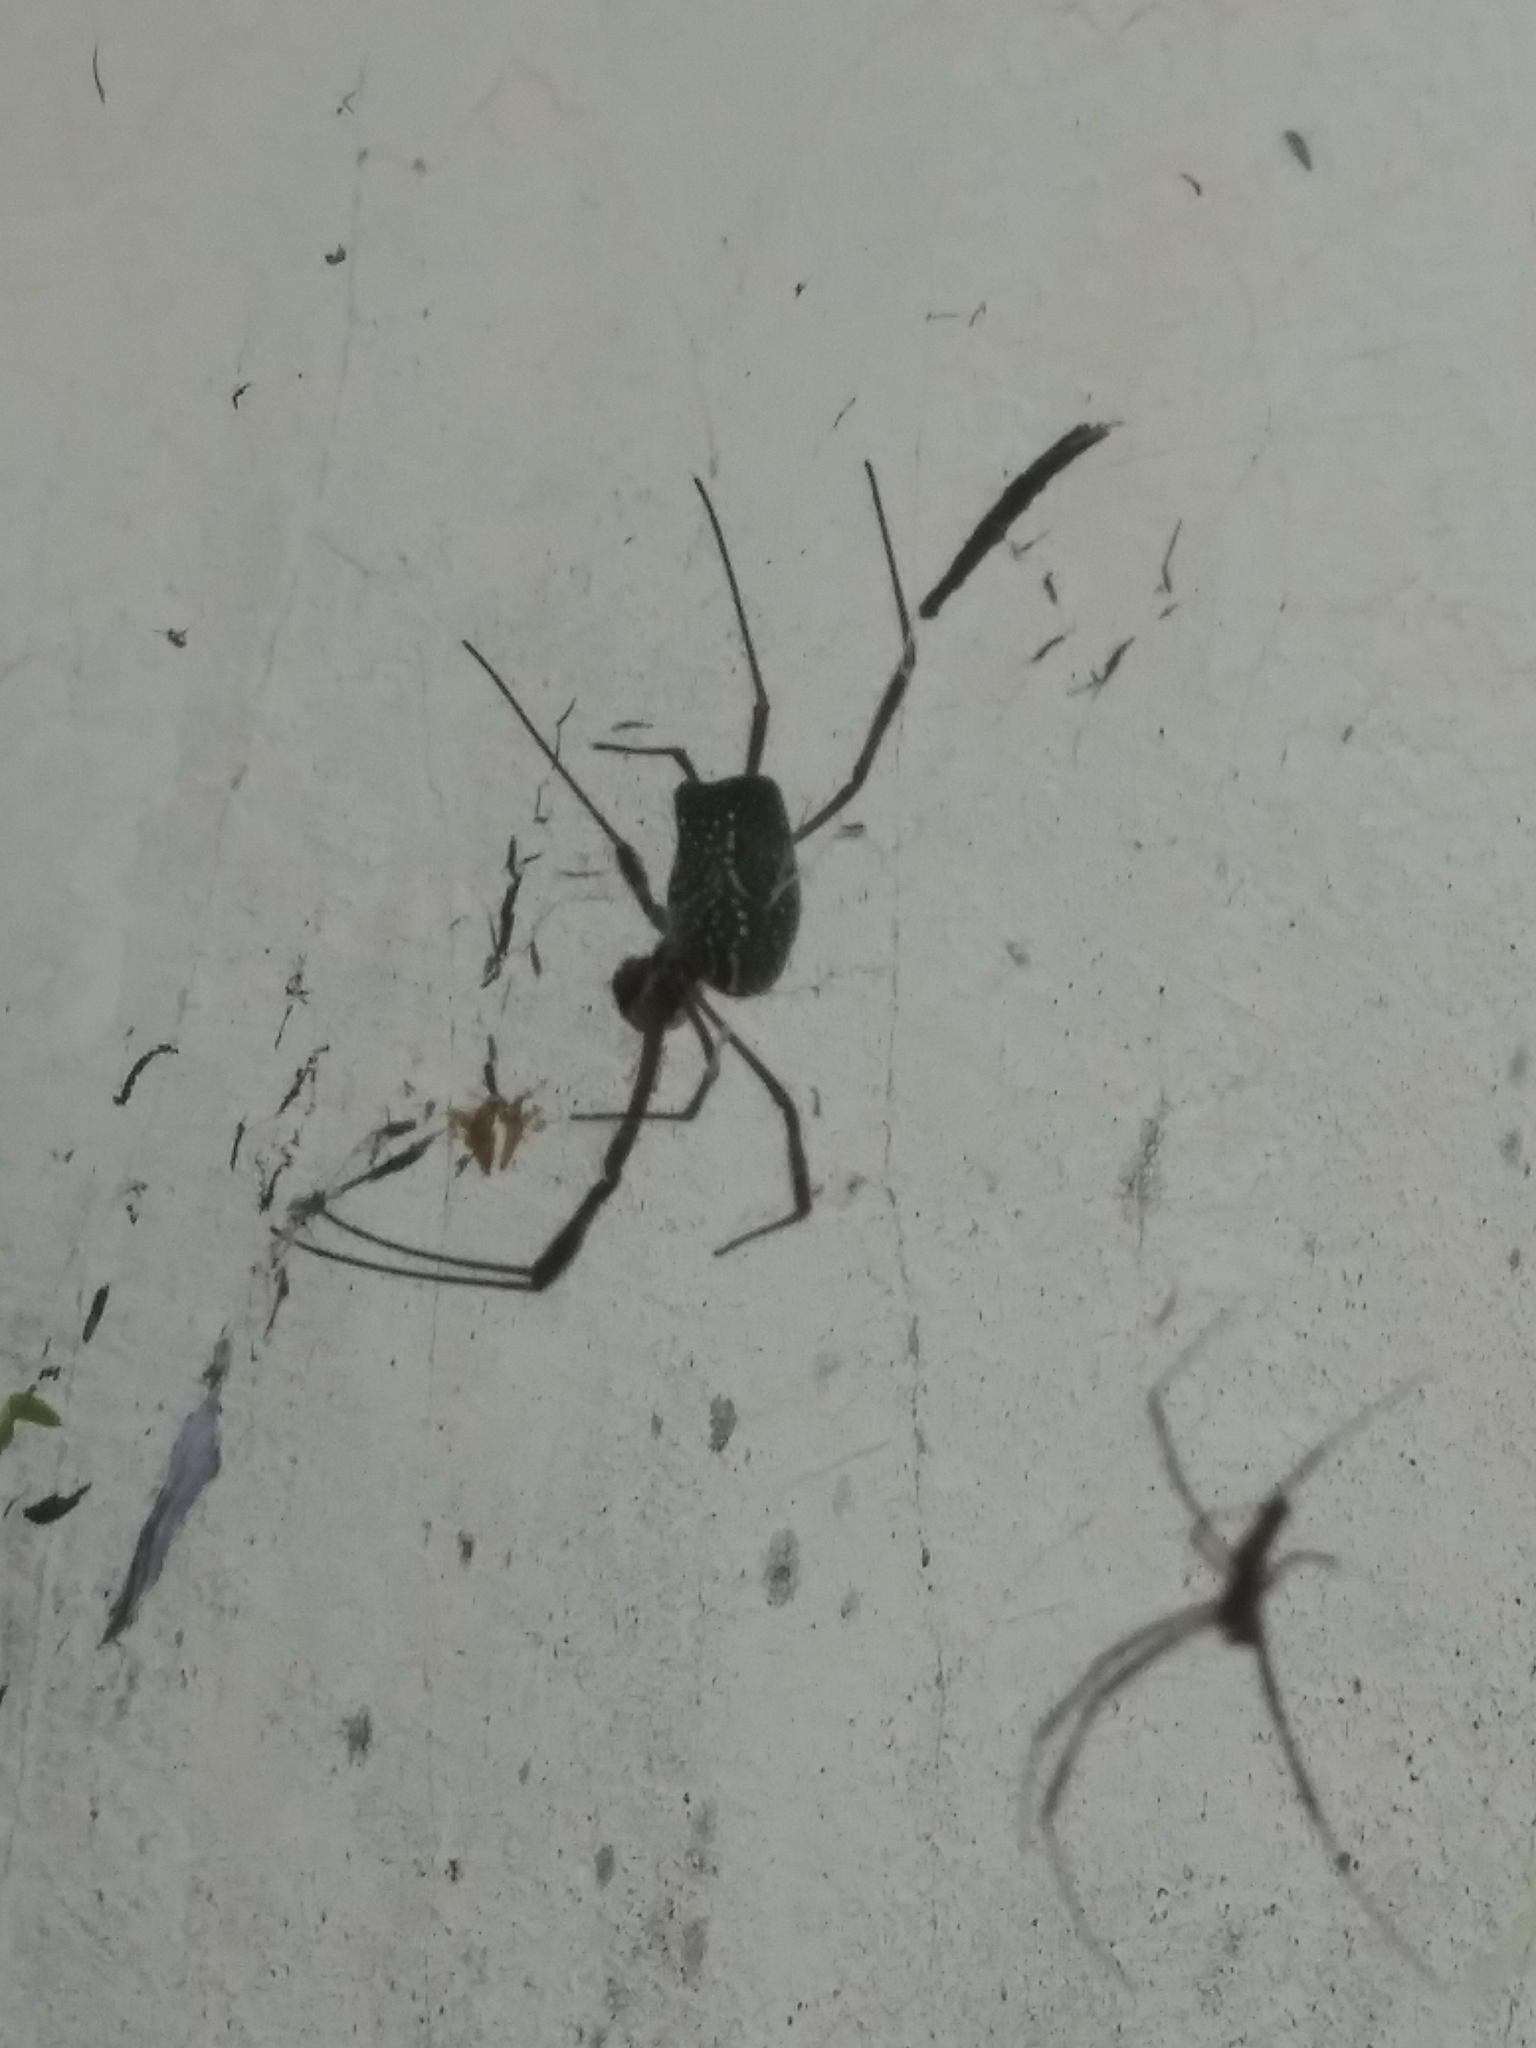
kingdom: Animalia
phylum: Arthropoda
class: Arachnida
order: Araneae
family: Araneidae
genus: Trichonephila
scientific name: Trichonephila clavipes
